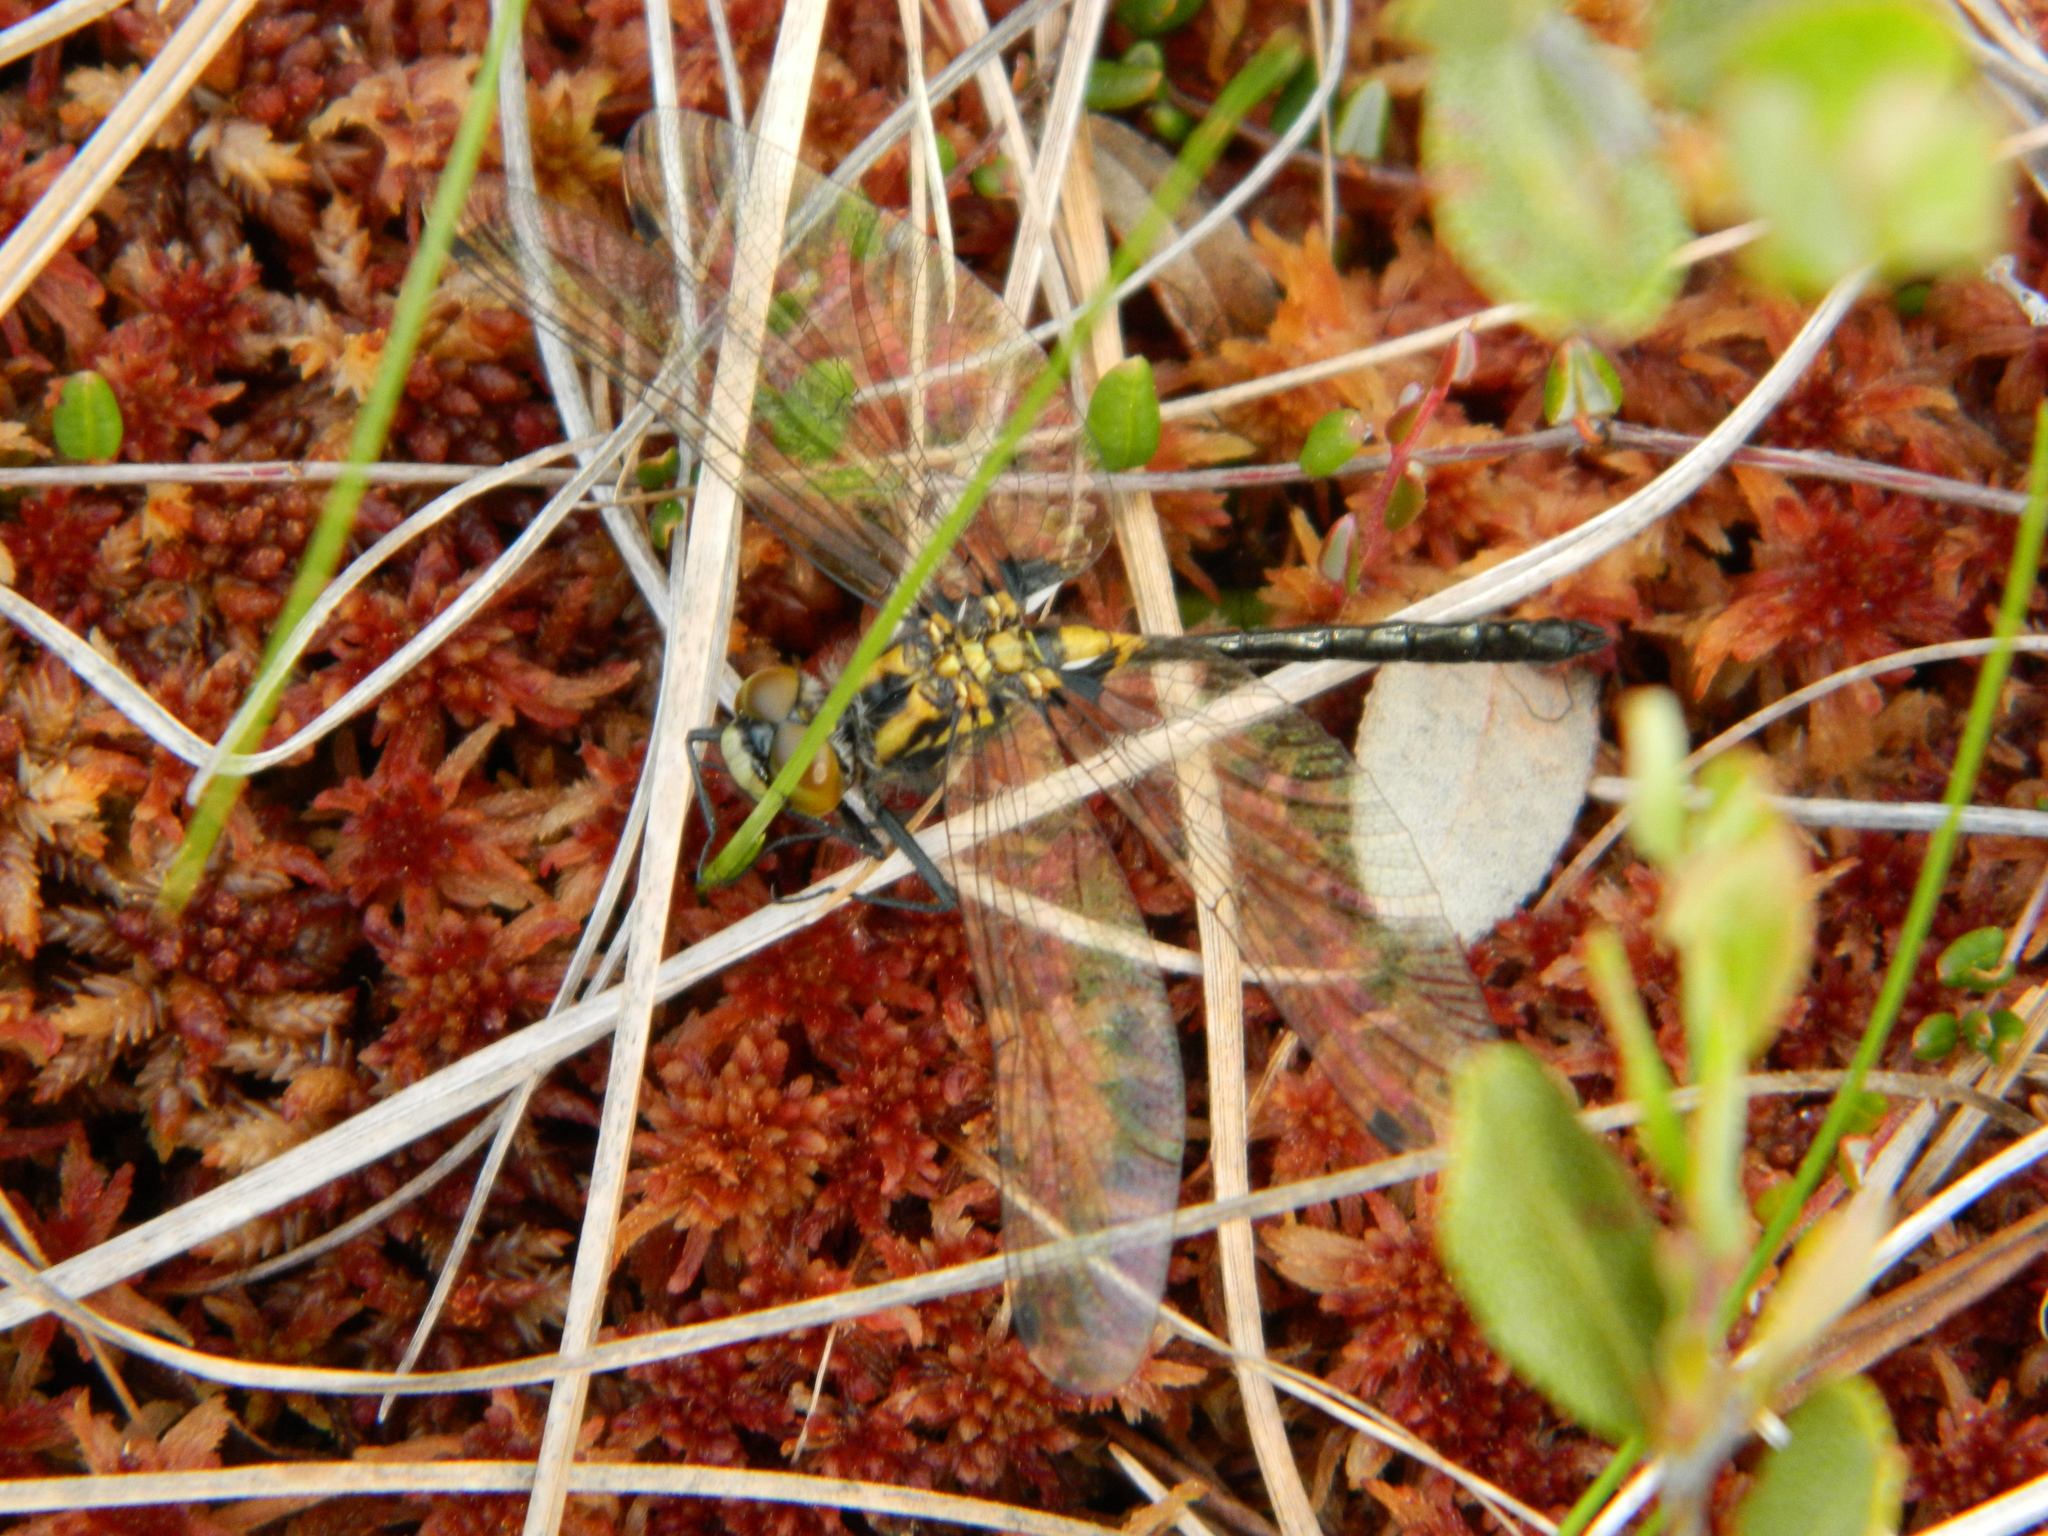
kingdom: Animalia
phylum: Arthropoda
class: Insecta
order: Odonata
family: Libellulidae
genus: Leucorrhinia
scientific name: Leucorrhinia glacialis
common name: Crimson-ringed whiteface
